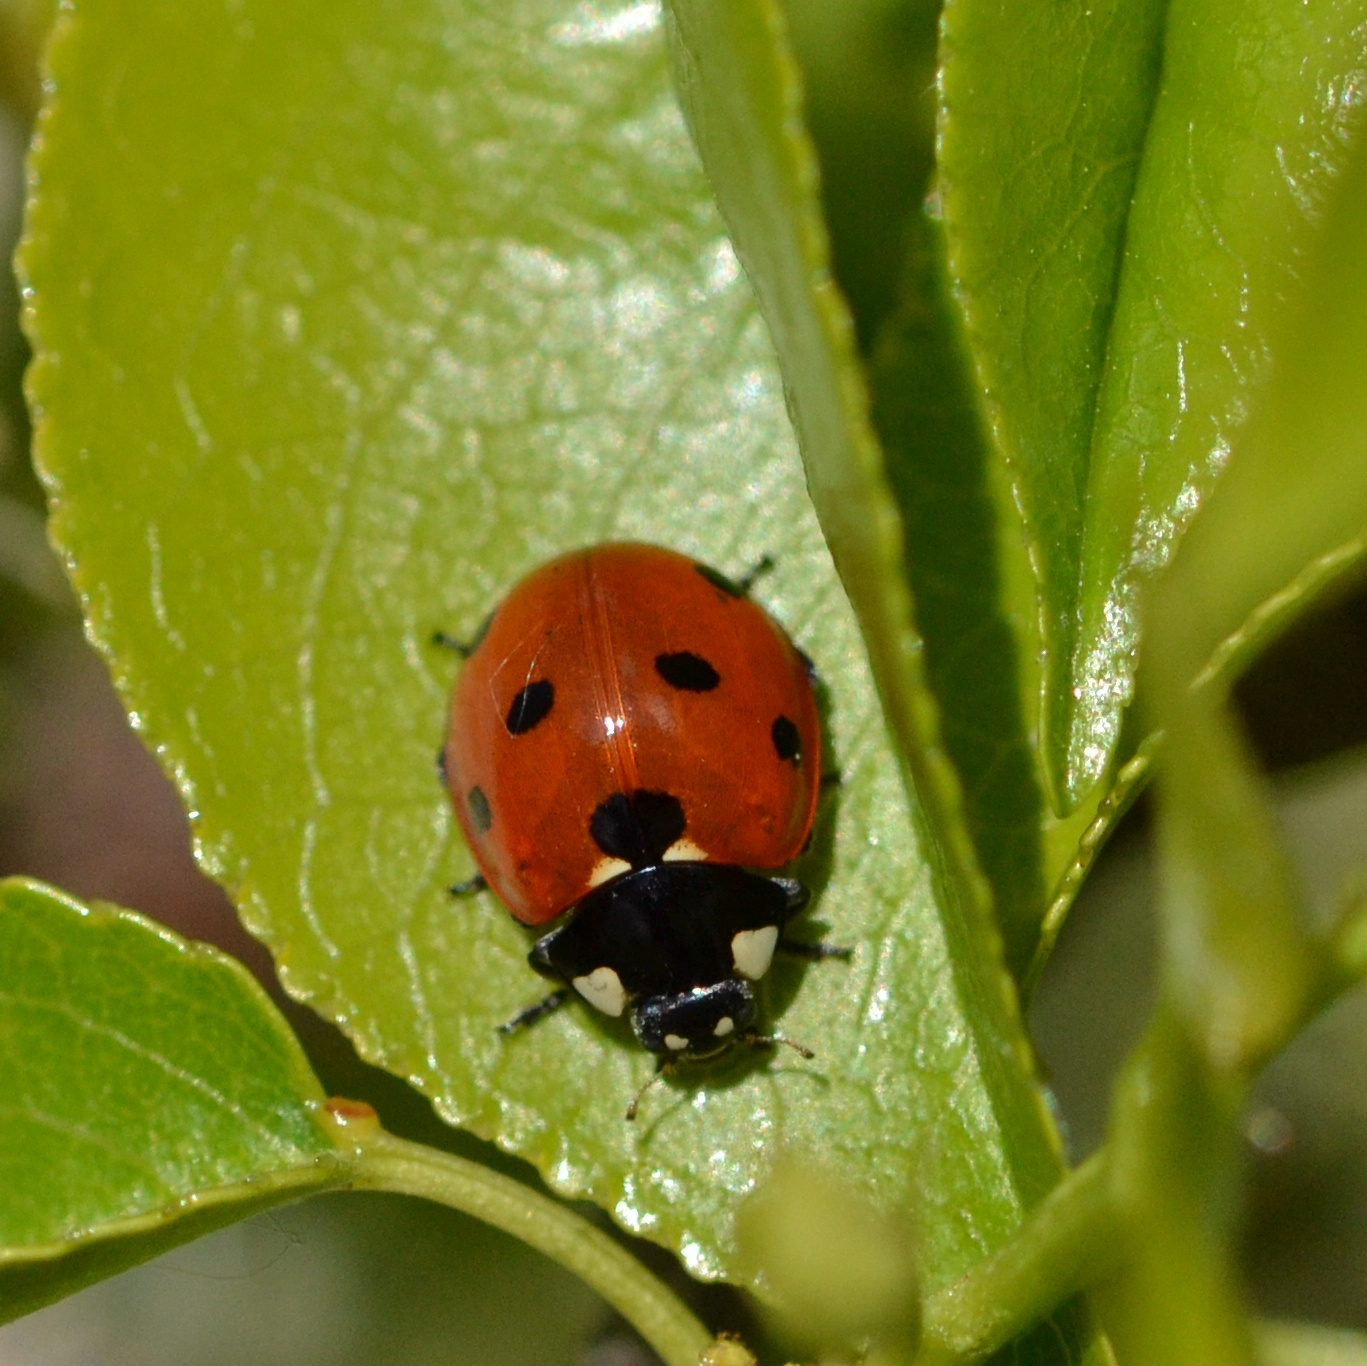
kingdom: Animalia
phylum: Arthropoda
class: Insecta
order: Coleoptera
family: Coccinellidae
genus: Coccinella
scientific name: Coccinella septempunctata
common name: Sevenspotted lady beetle
